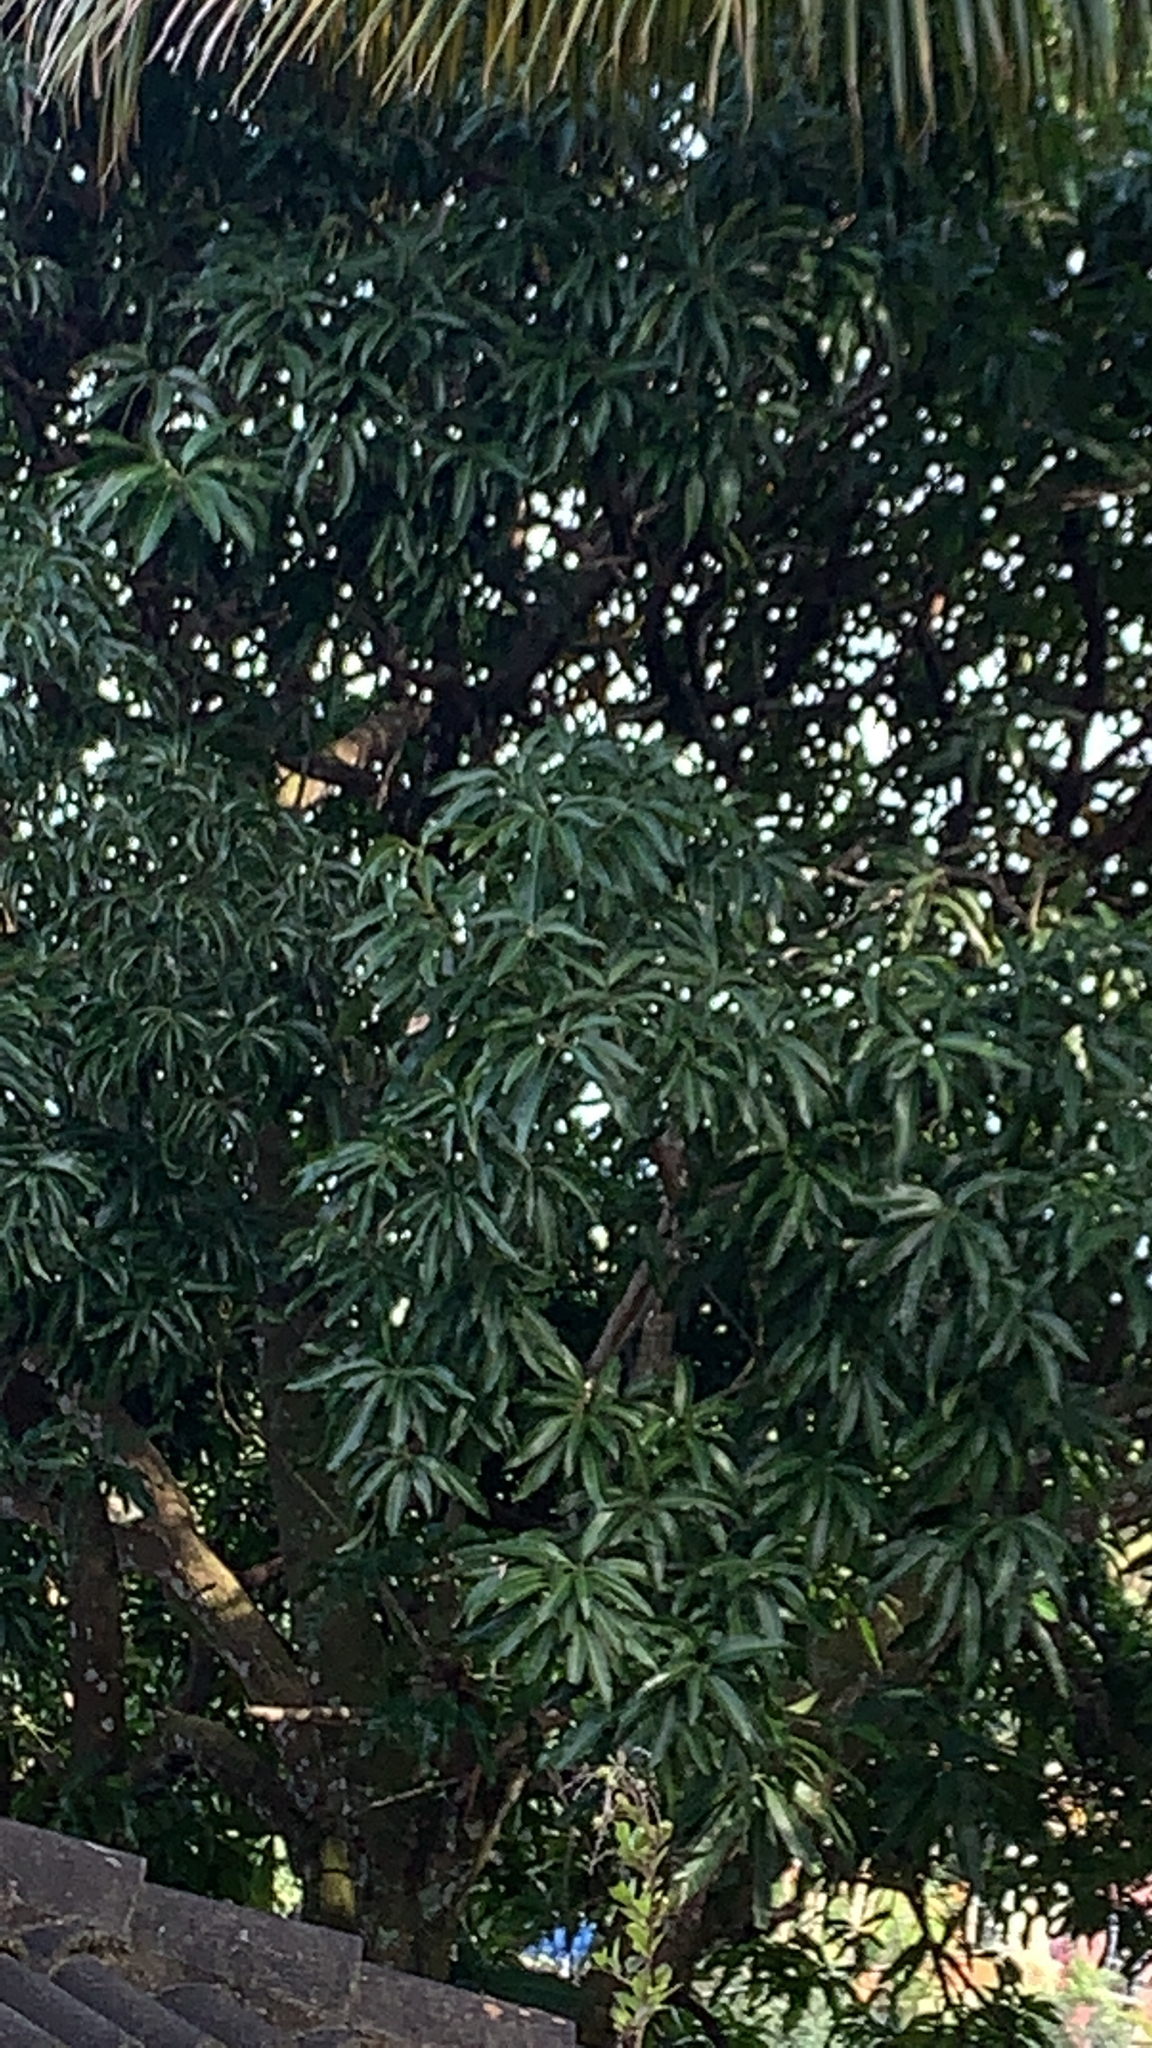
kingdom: Plantae
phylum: Tracheophyta
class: Magnoliopsida
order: Sapindales
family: Anacardiaceae
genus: Mangifera
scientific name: Mangifera indica
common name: Mango
